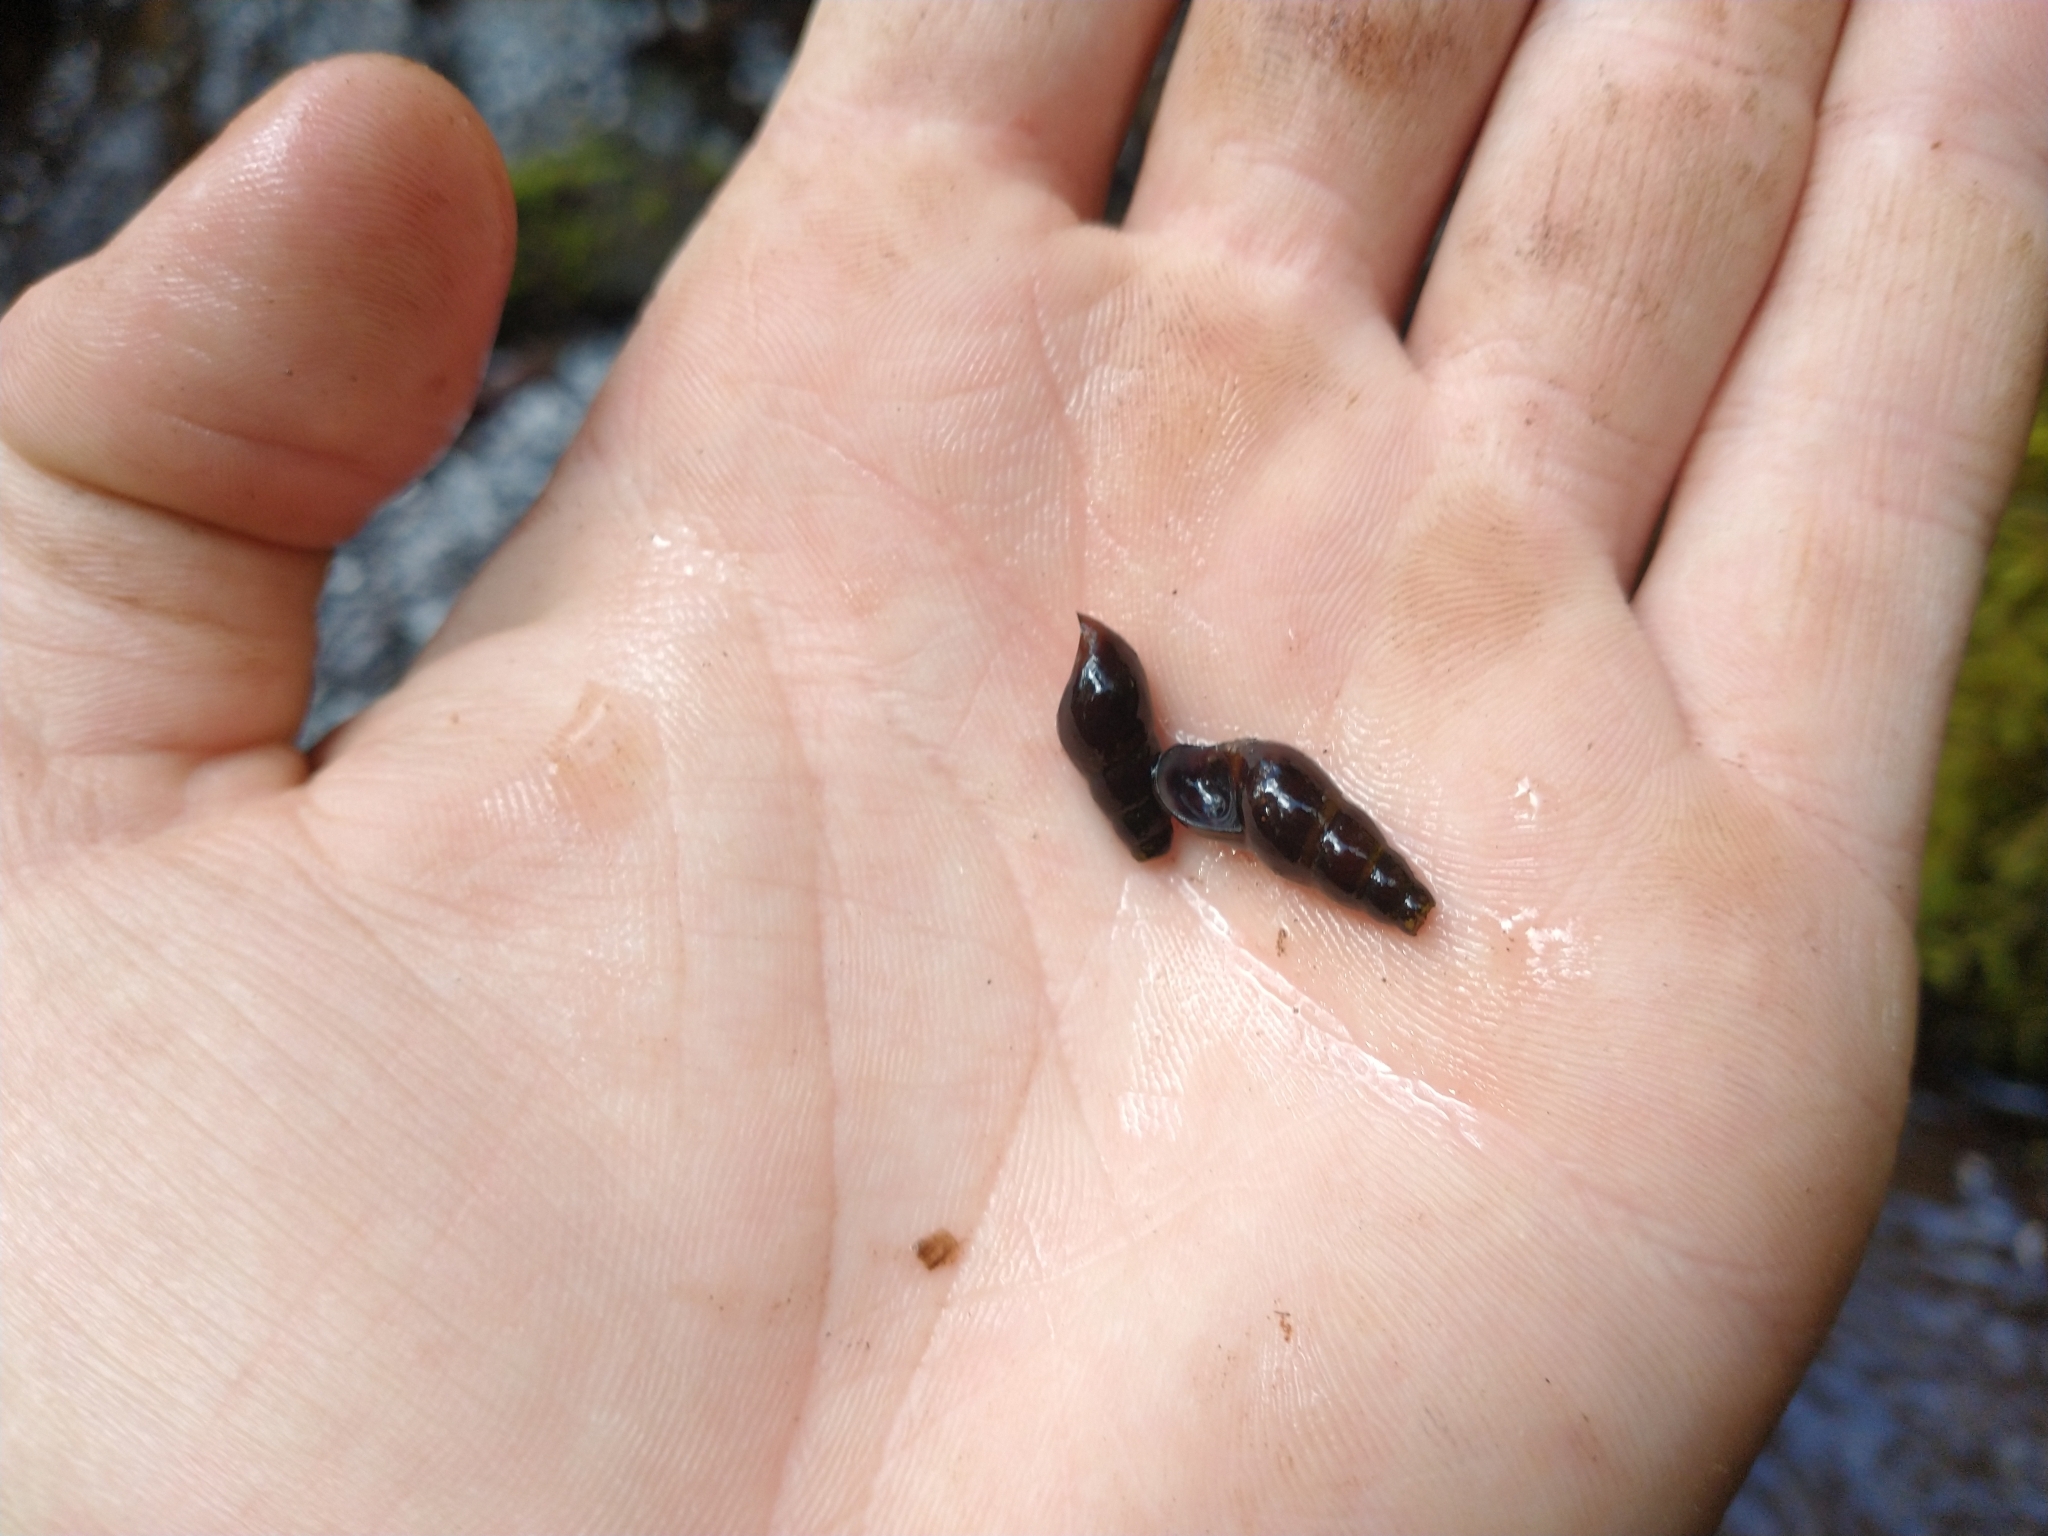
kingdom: Animalia
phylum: Mollusca
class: Gastropoda
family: Semisulcospiridae
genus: Juga
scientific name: Juga plicifera
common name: Pleated juga
